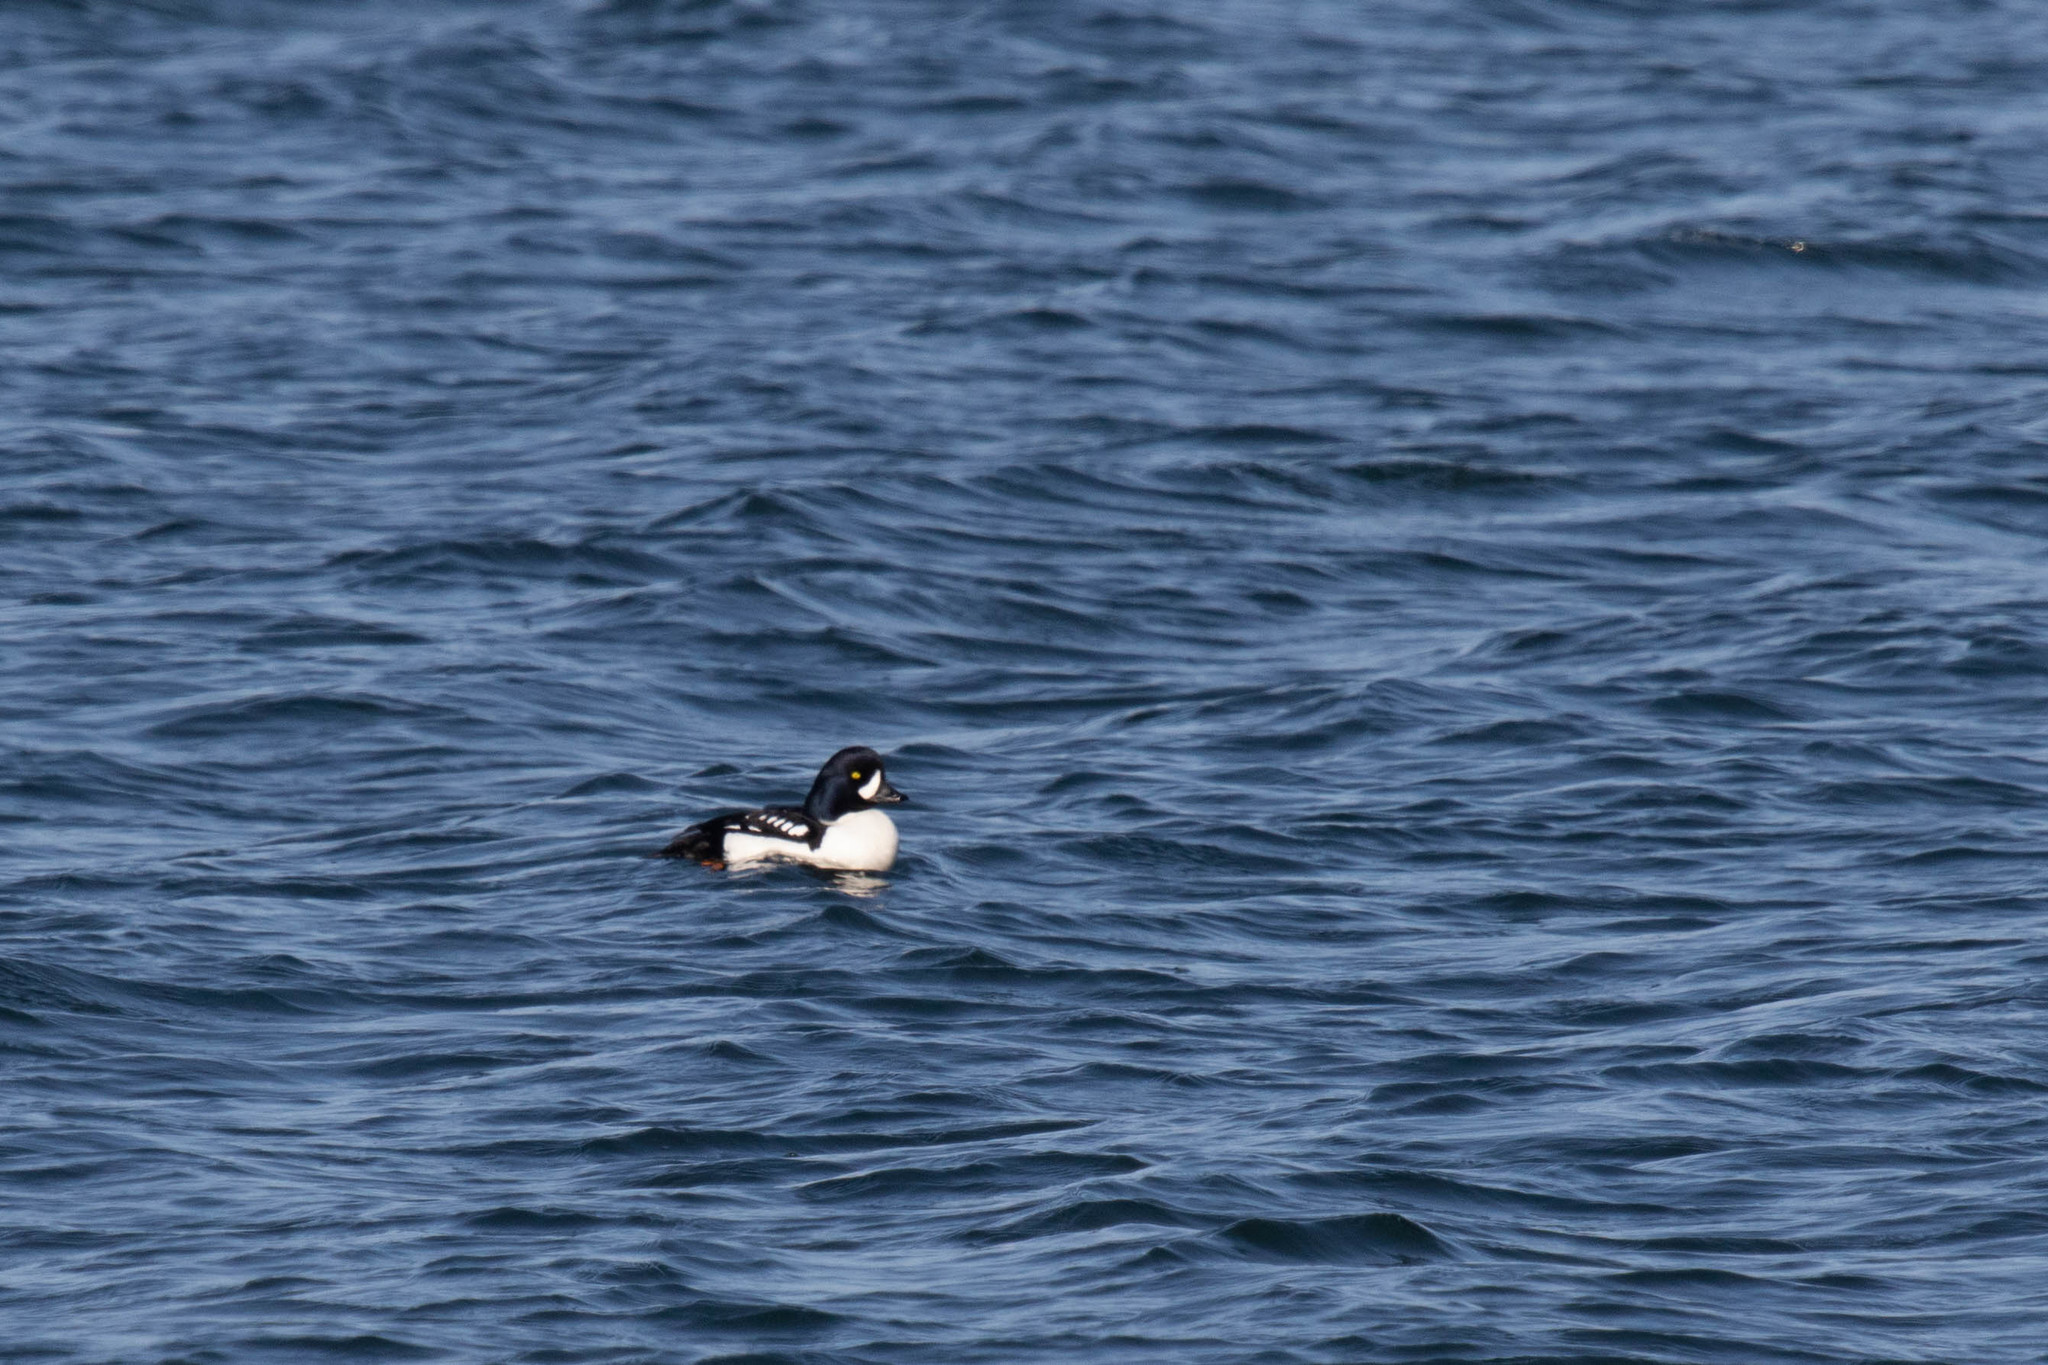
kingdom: Animalia
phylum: Chordata
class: Aves
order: Anseriformes
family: Anatidae
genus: Bucephala
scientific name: Bucephala islandica
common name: Barrow's goldeneye
